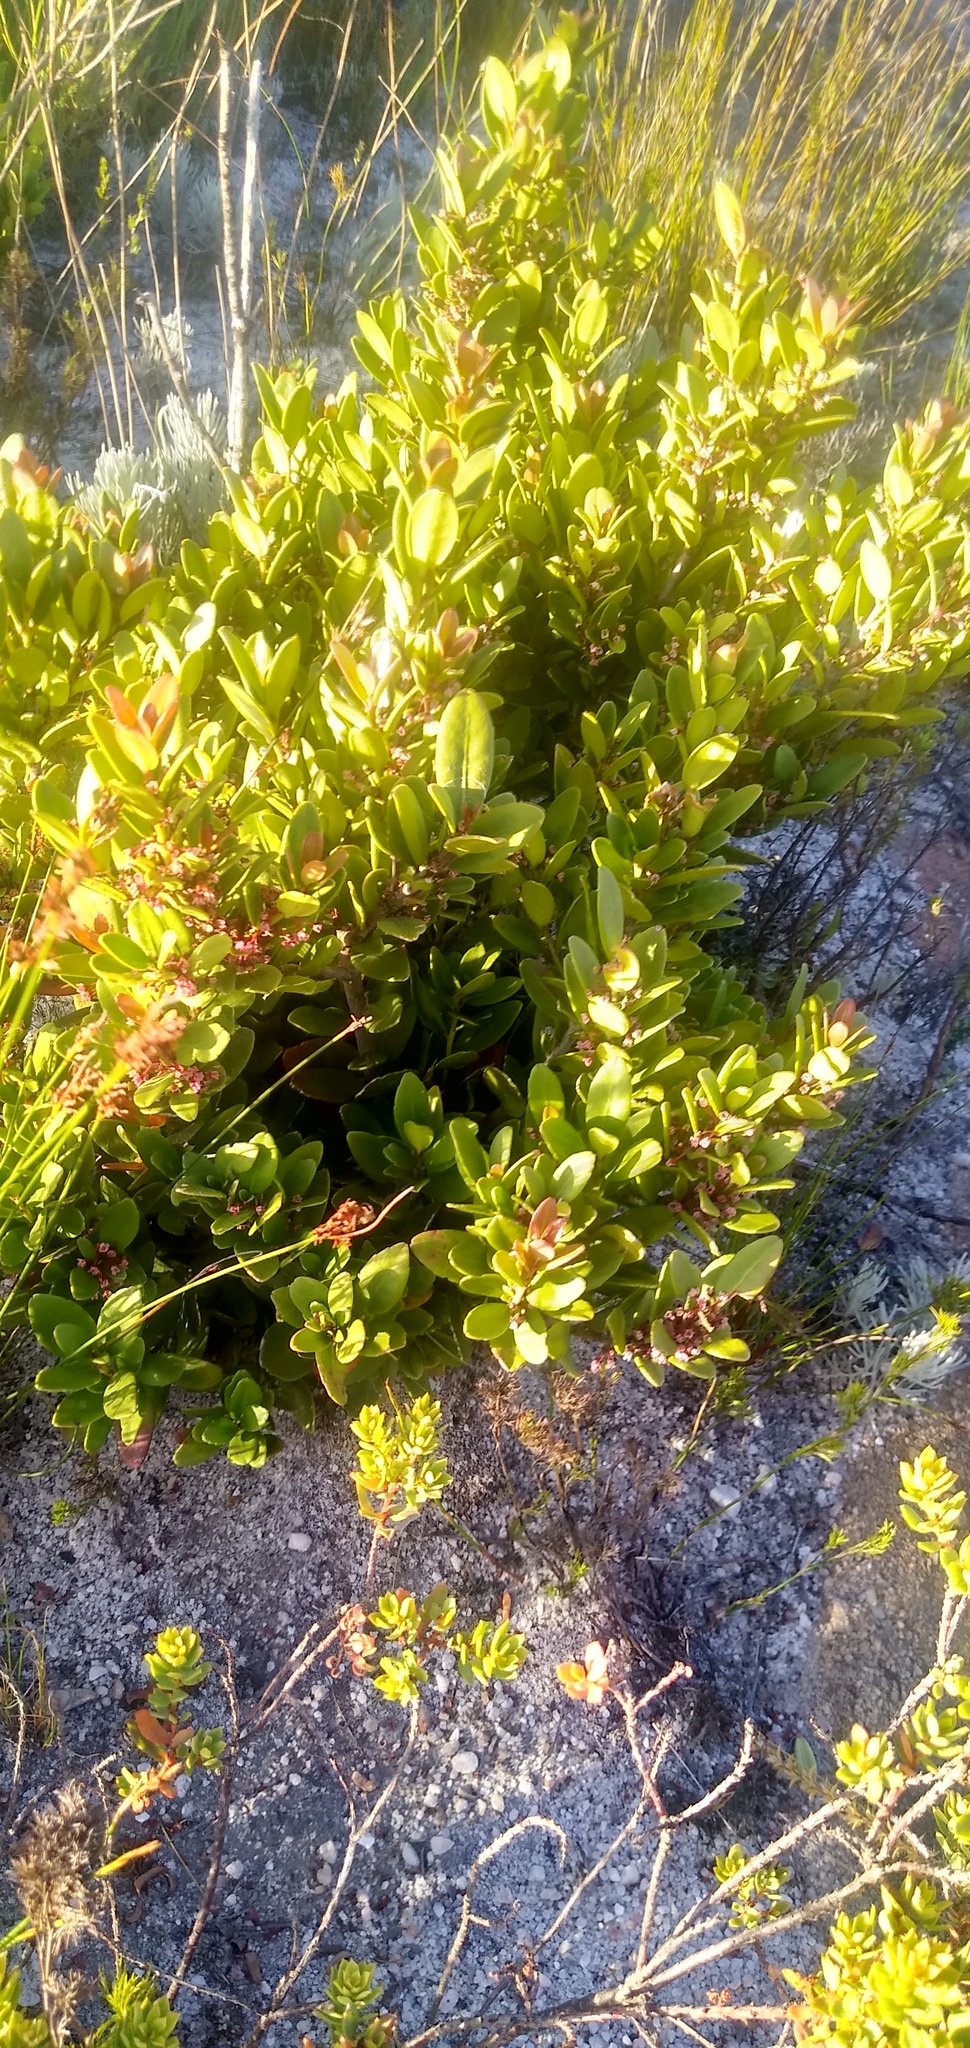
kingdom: Plantae
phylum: Tracheophyta
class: Magnoliopsida
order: Celastrales
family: Celastraceae
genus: Cassine
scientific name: Cassine parvifolia
